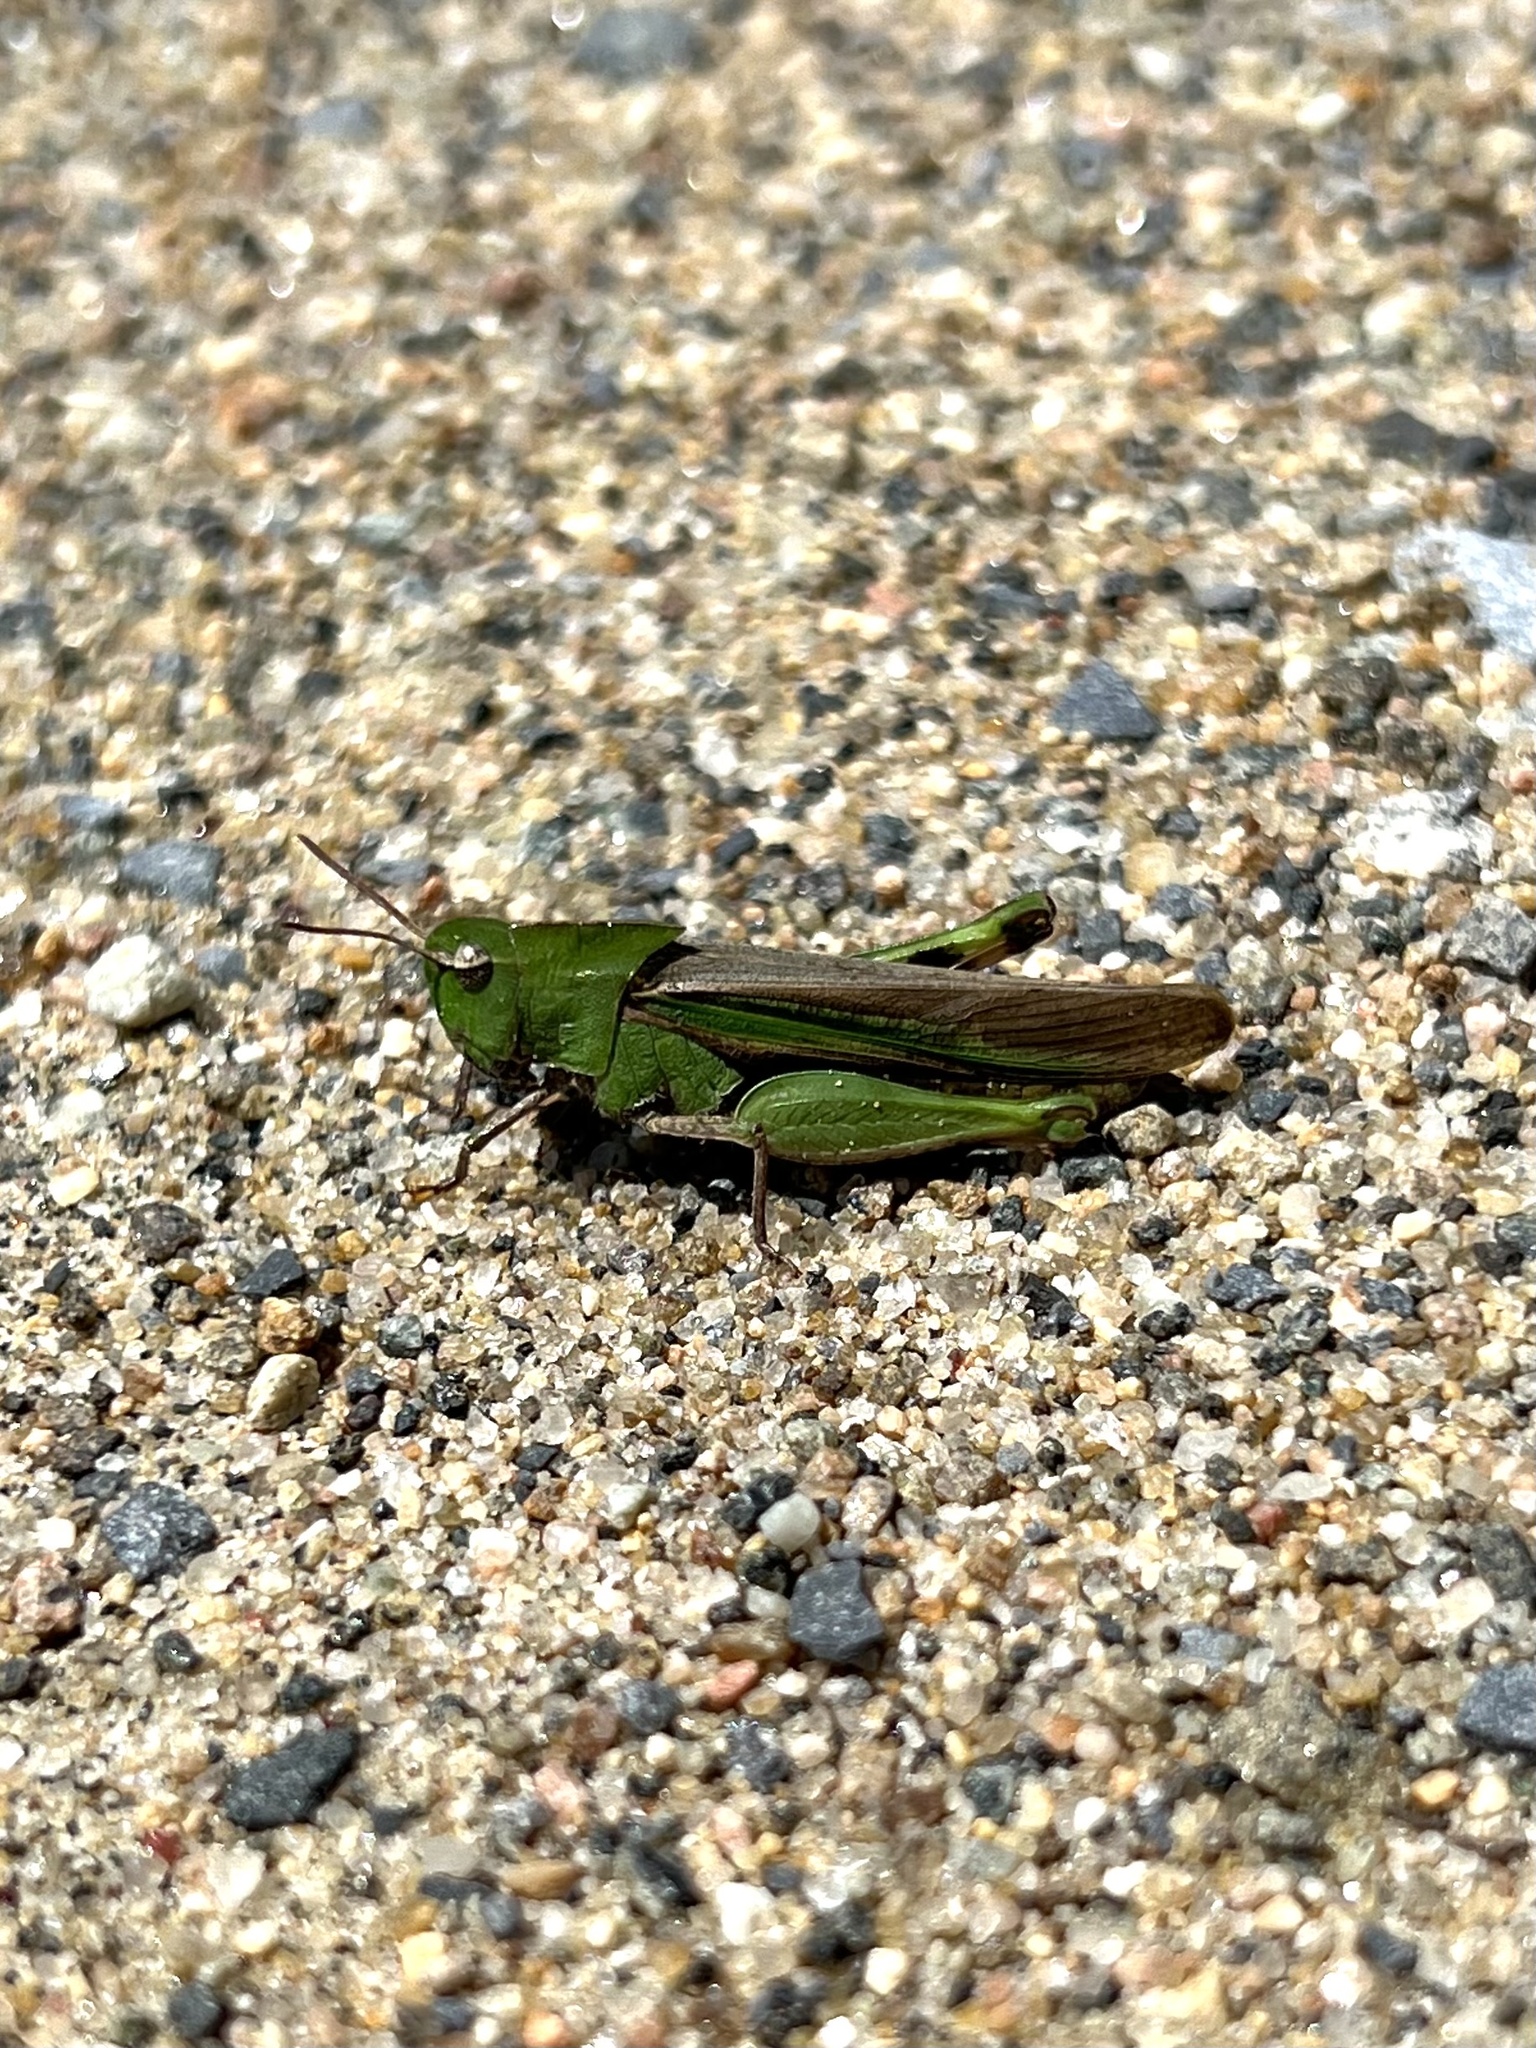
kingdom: Animalia
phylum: Arthropoda
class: Insecta
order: Orthoptera
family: Acrididae
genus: Chortophaga
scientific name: Chortophaga viridifasciata
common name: Green-striped grasshopper
